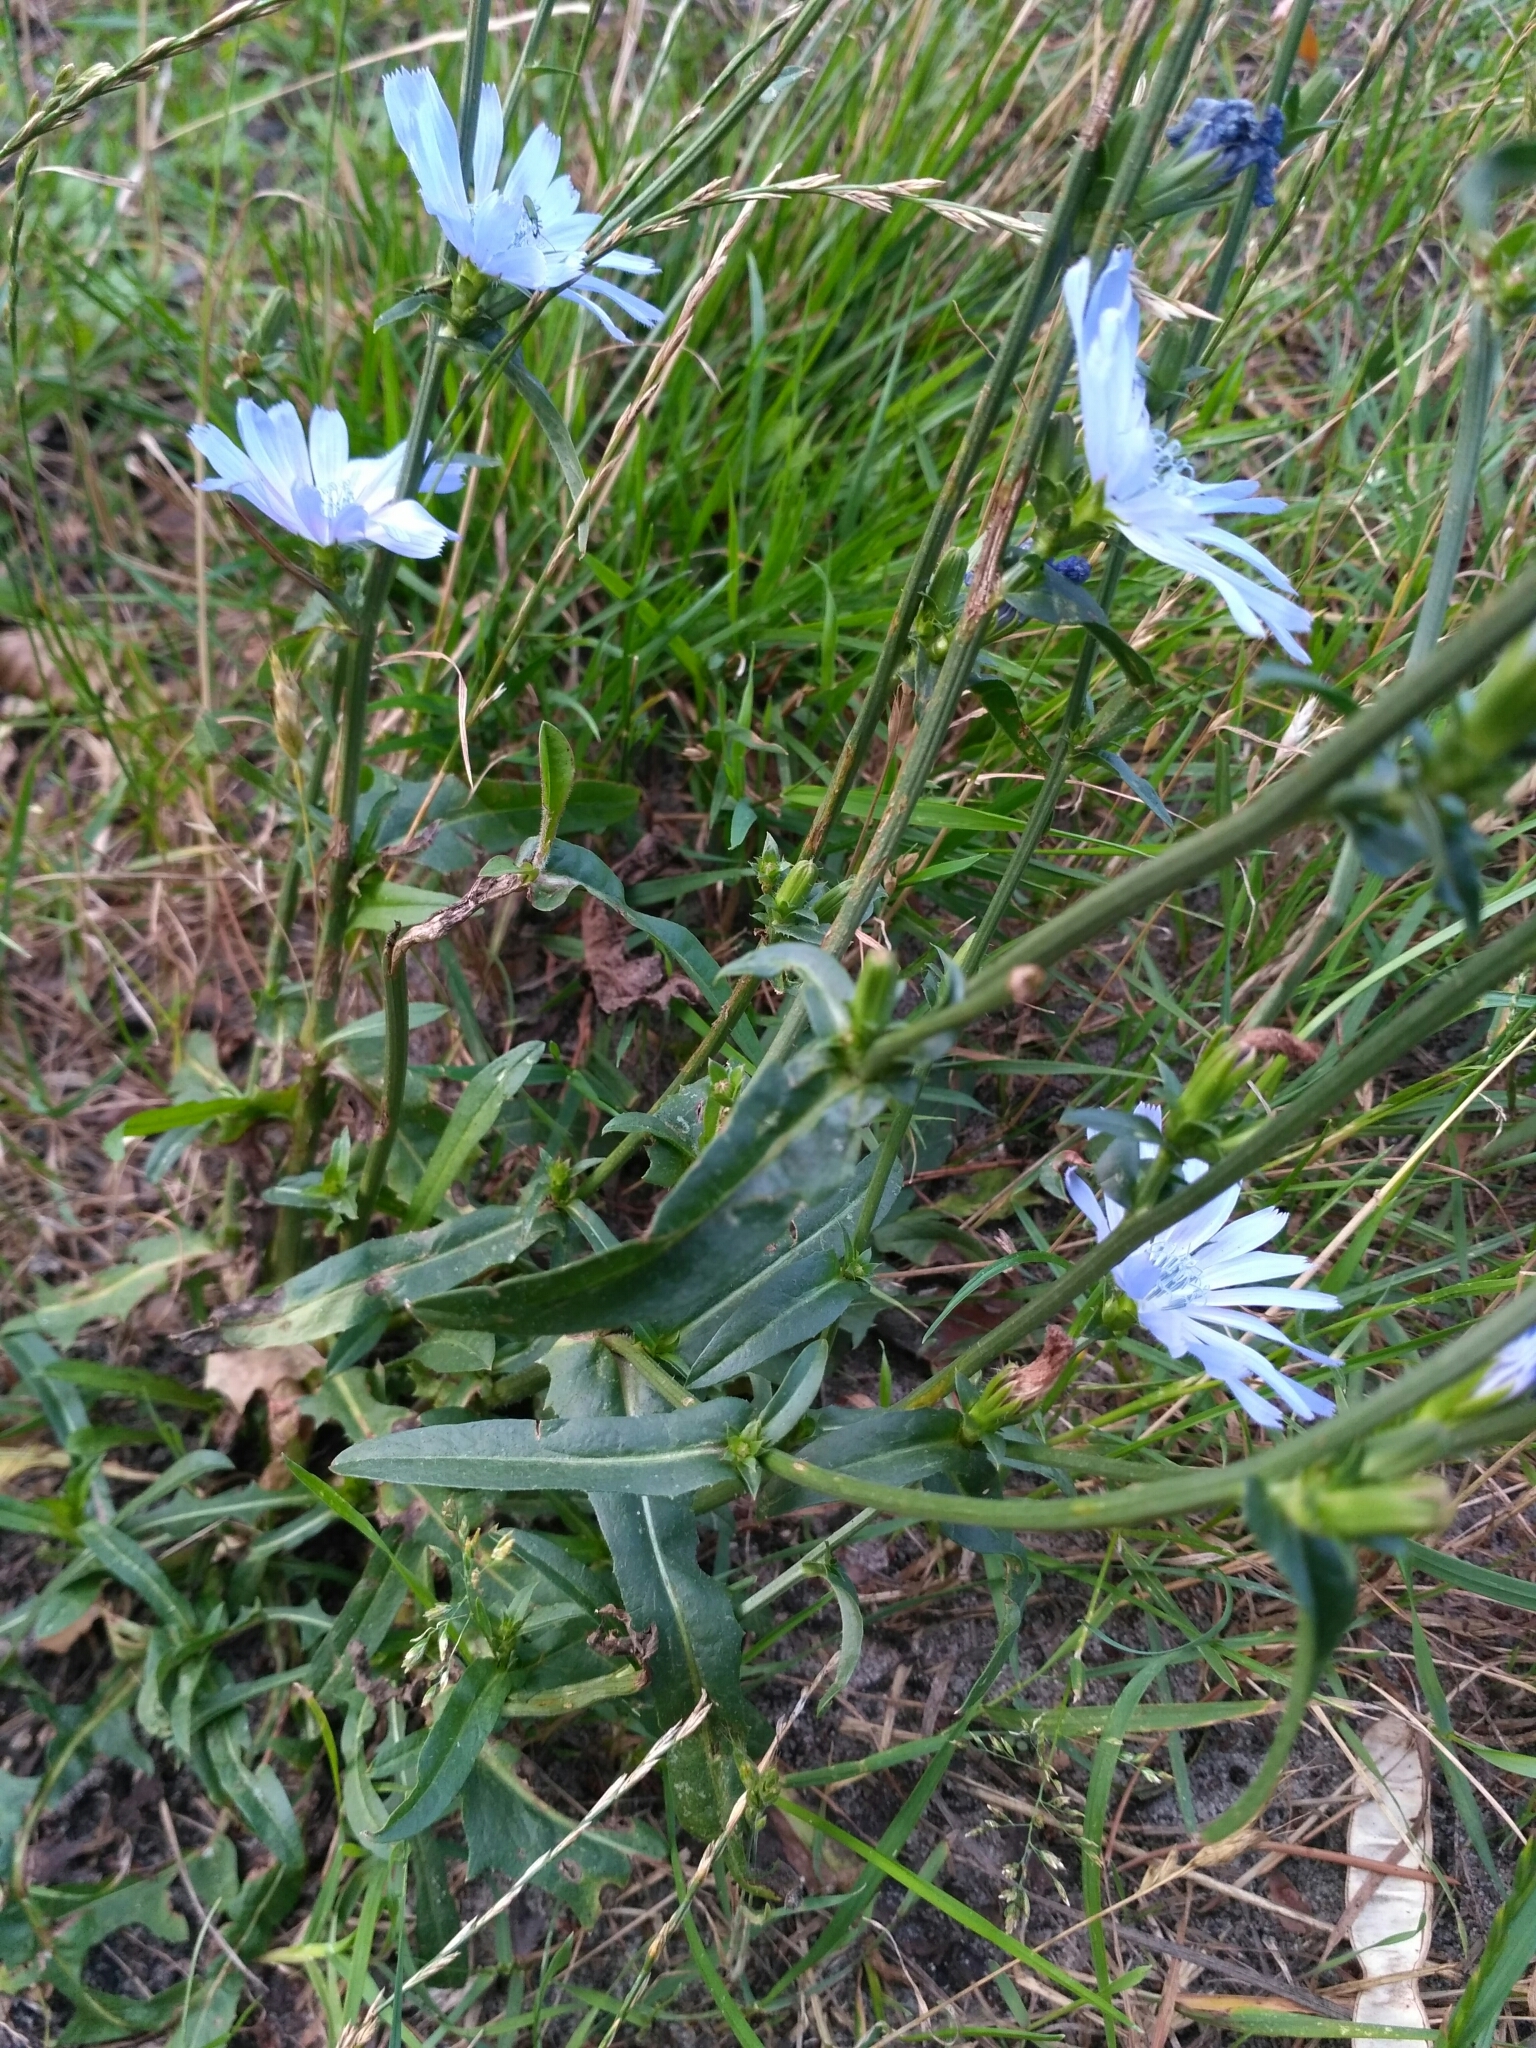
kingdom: Plantae
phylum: Tracheophyta
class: Magnoliopsida
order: Asterales
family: Asteraceae
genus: Cichorium
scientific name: Cichorium intybus
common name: Chicory
